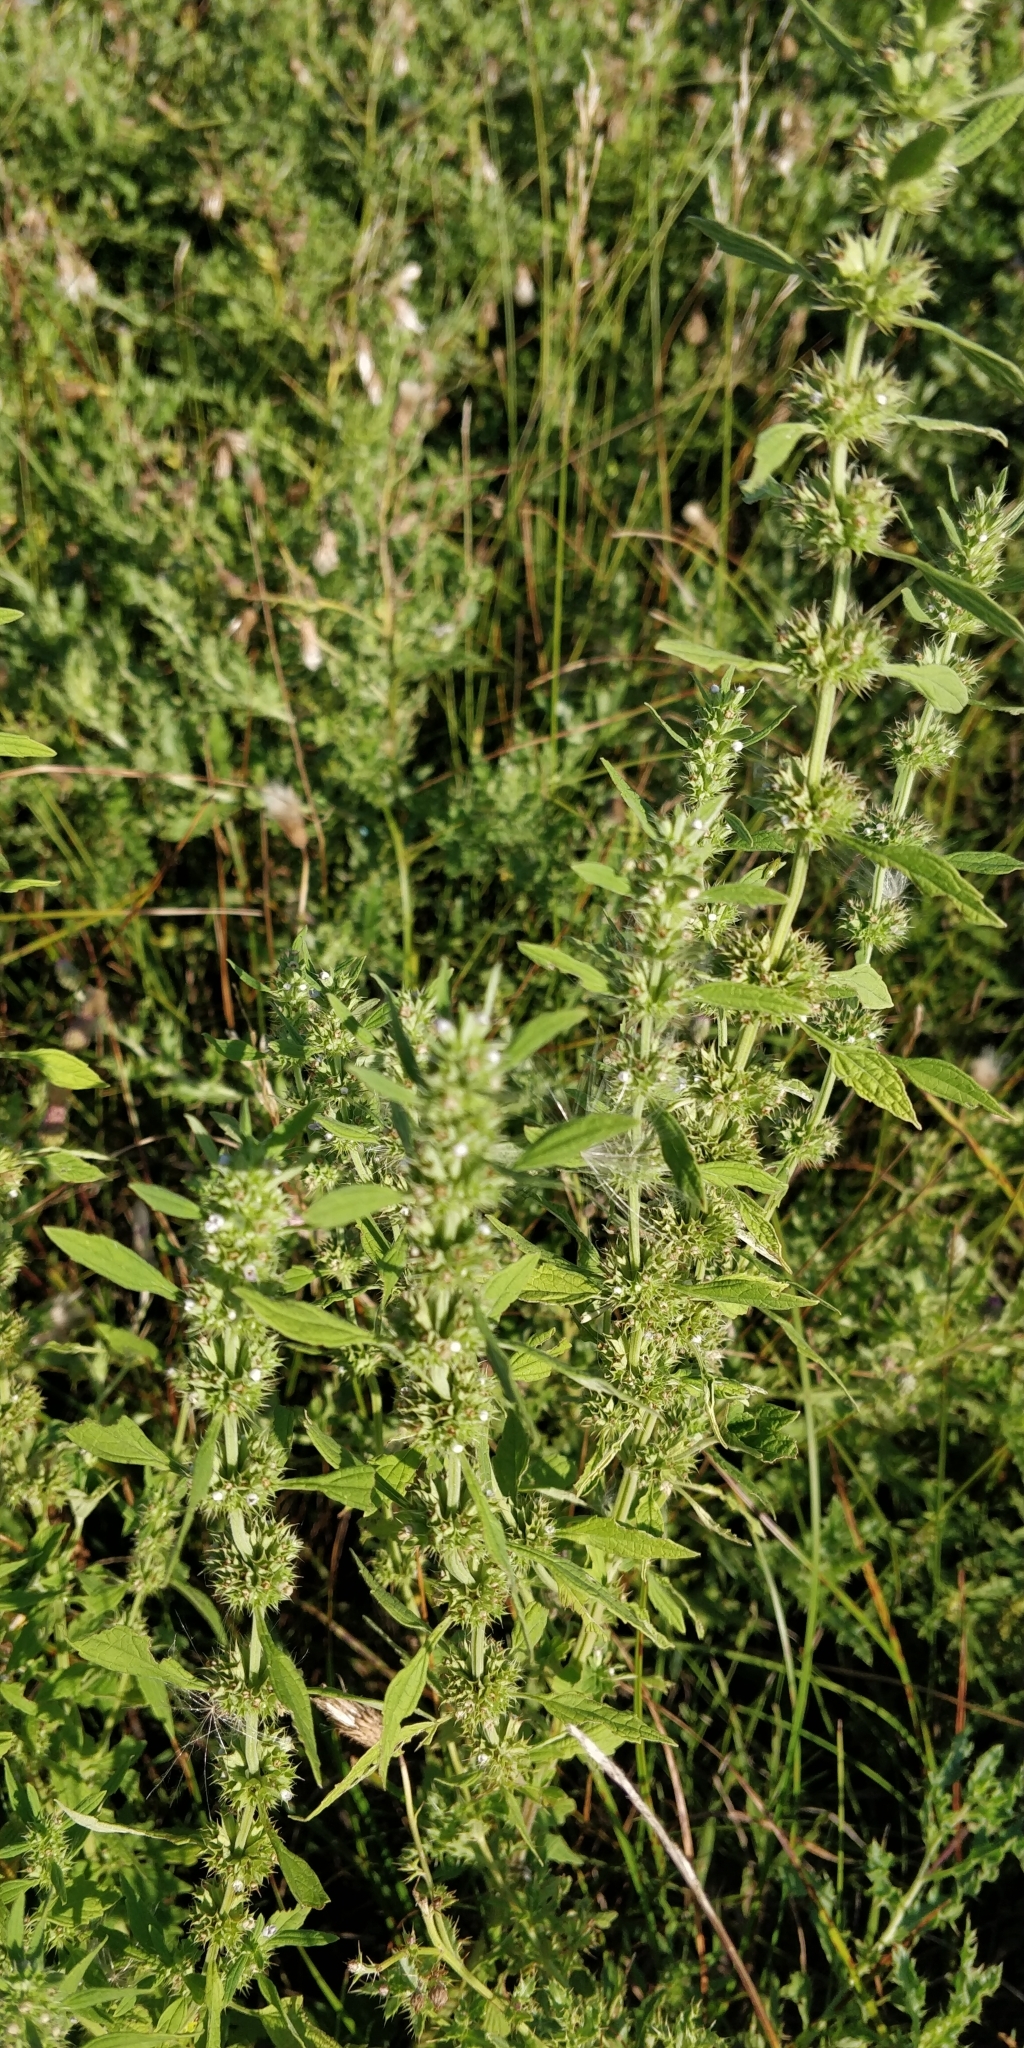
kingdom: Plantae
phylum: Tracheophyta
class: Magnoliopsida
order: Lamiales
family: Lamiaceae
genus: Chaiturus
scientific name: Chaiturus marrubiastrum
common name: Lion's tail
